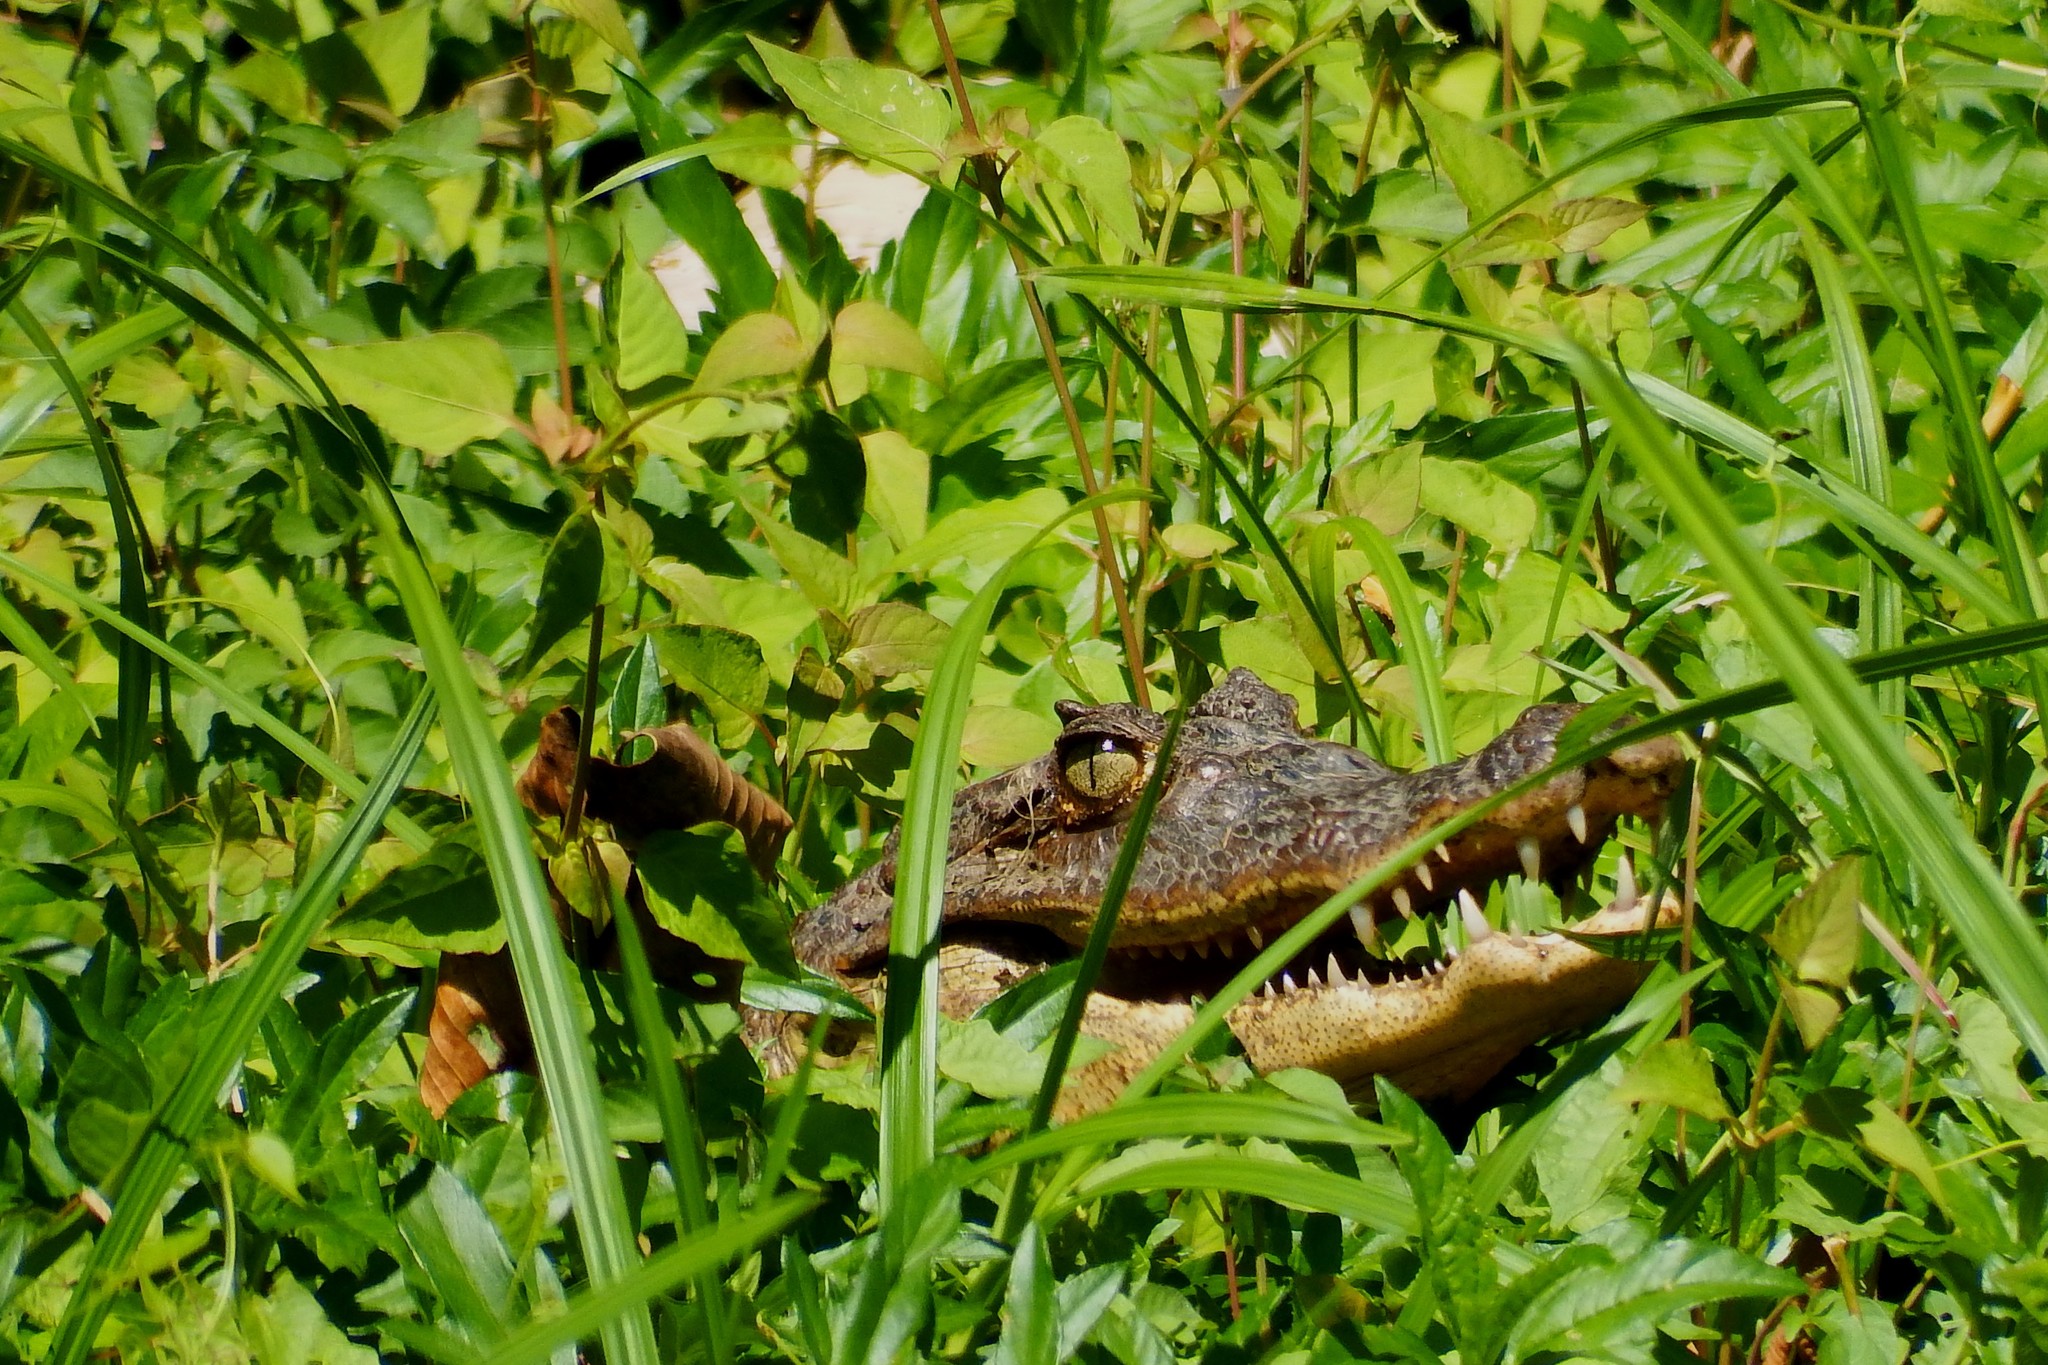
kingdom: Animalia
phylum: Chordata
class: Crocodylia
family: Alligatoridae
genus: Caiman
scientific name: Caiman crocodilus
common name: Common caiman
